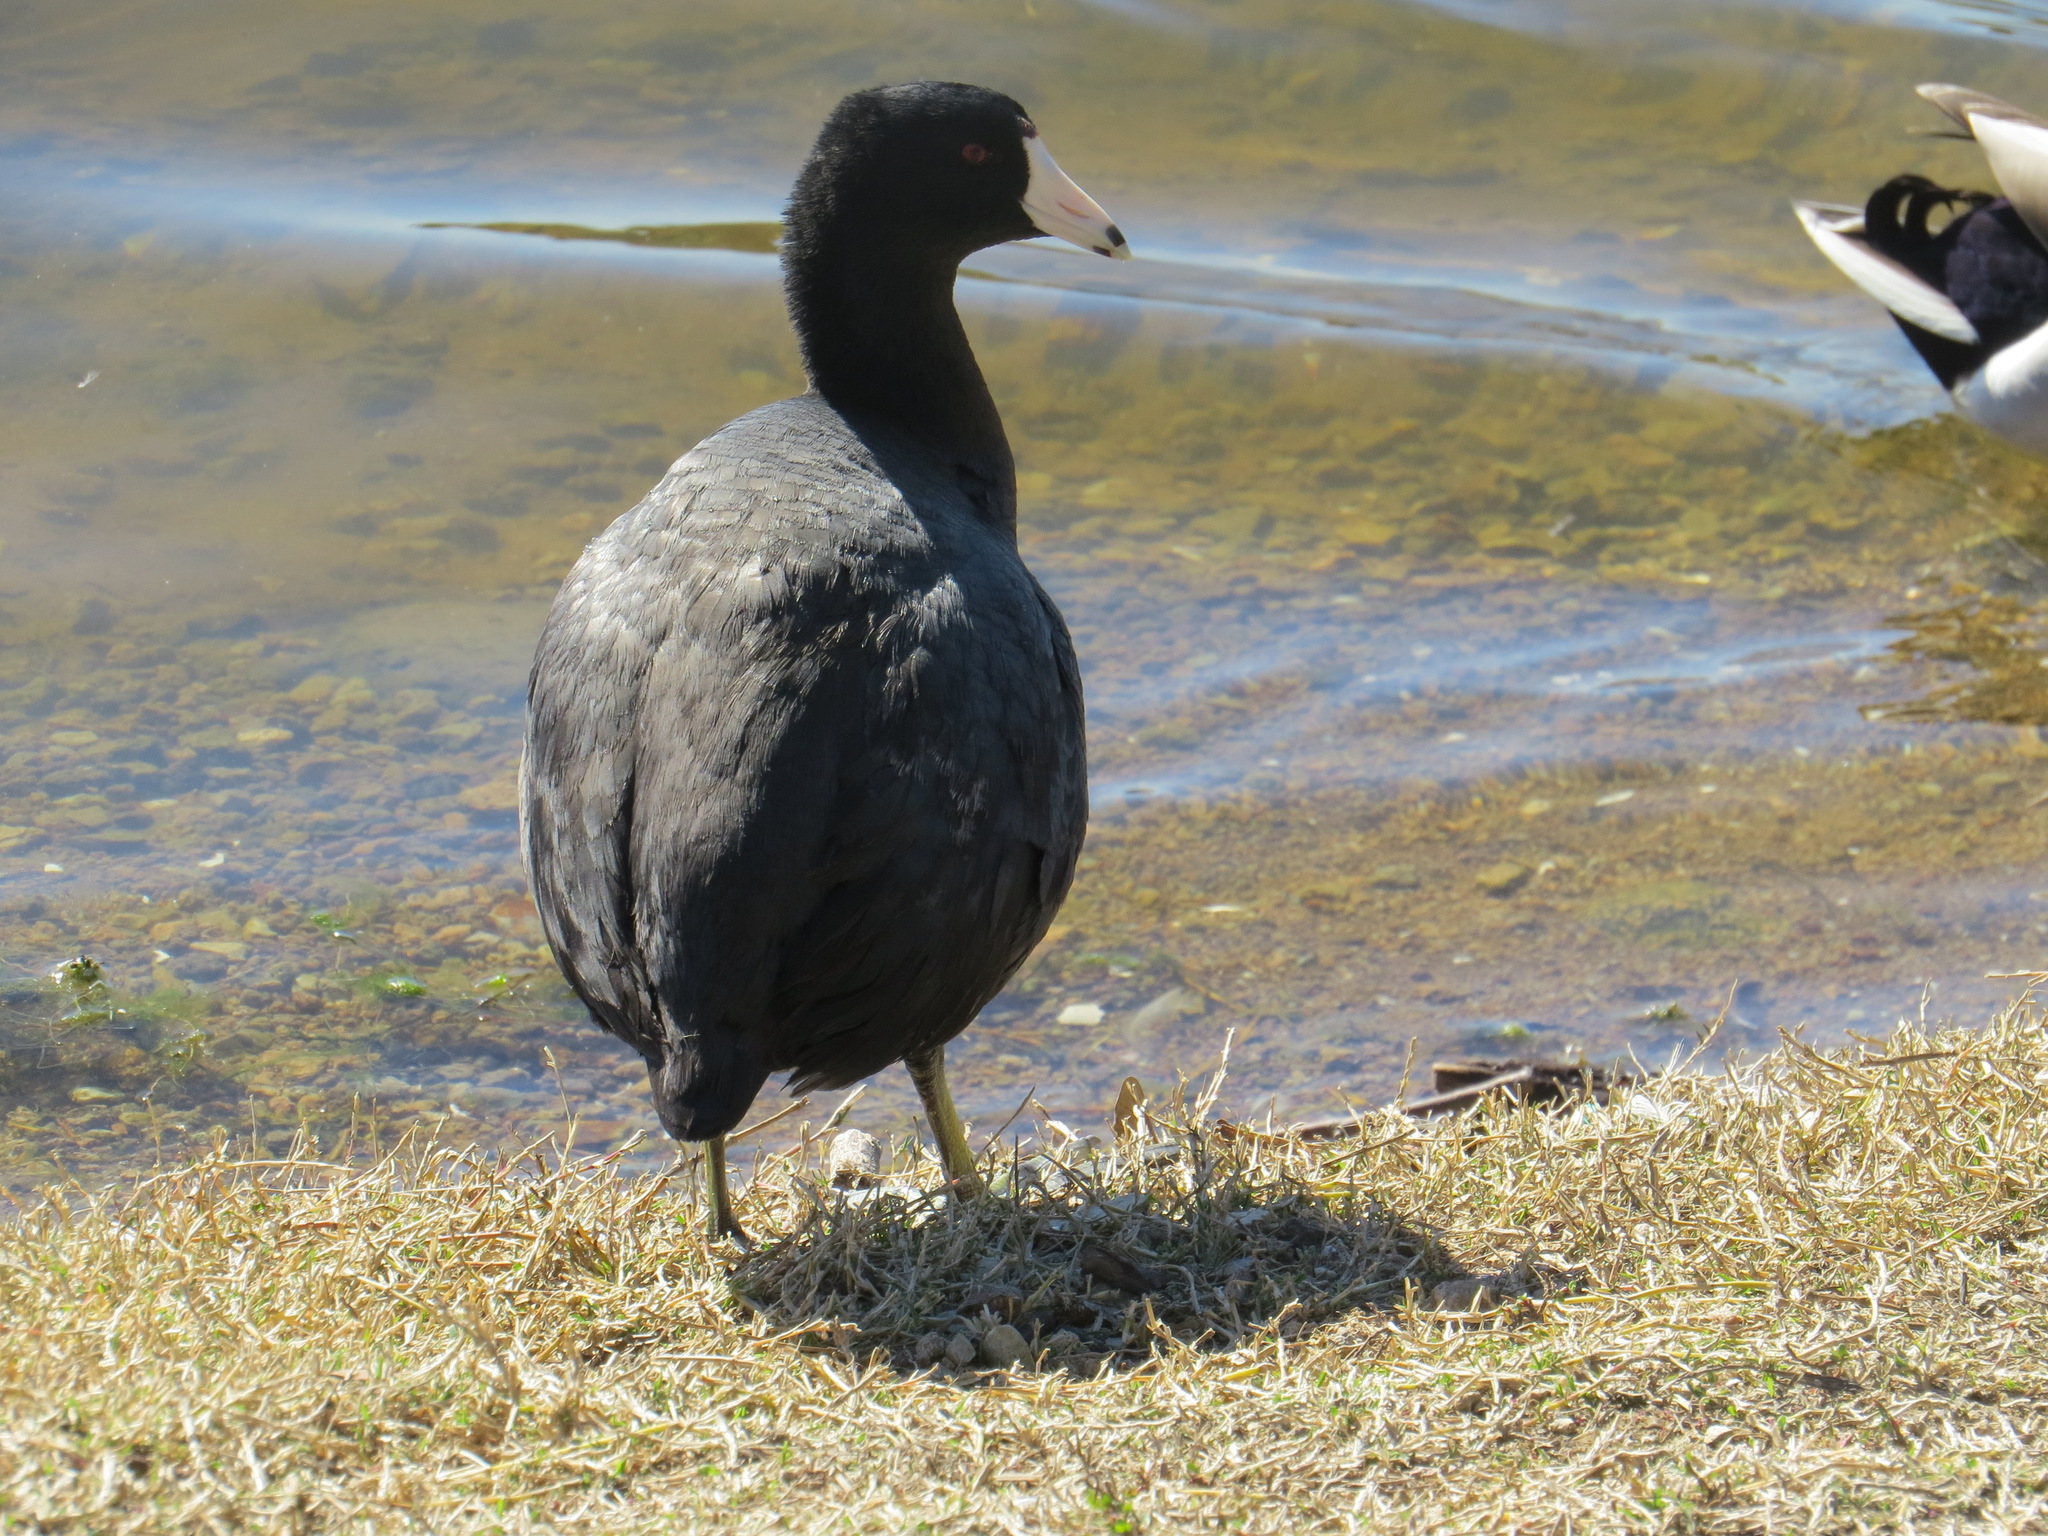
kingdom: Animalia
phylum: Chordata
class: Aves
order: Gruiformes
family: Rallidae
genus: Fulica
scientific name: Fulica americana
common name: American coot
